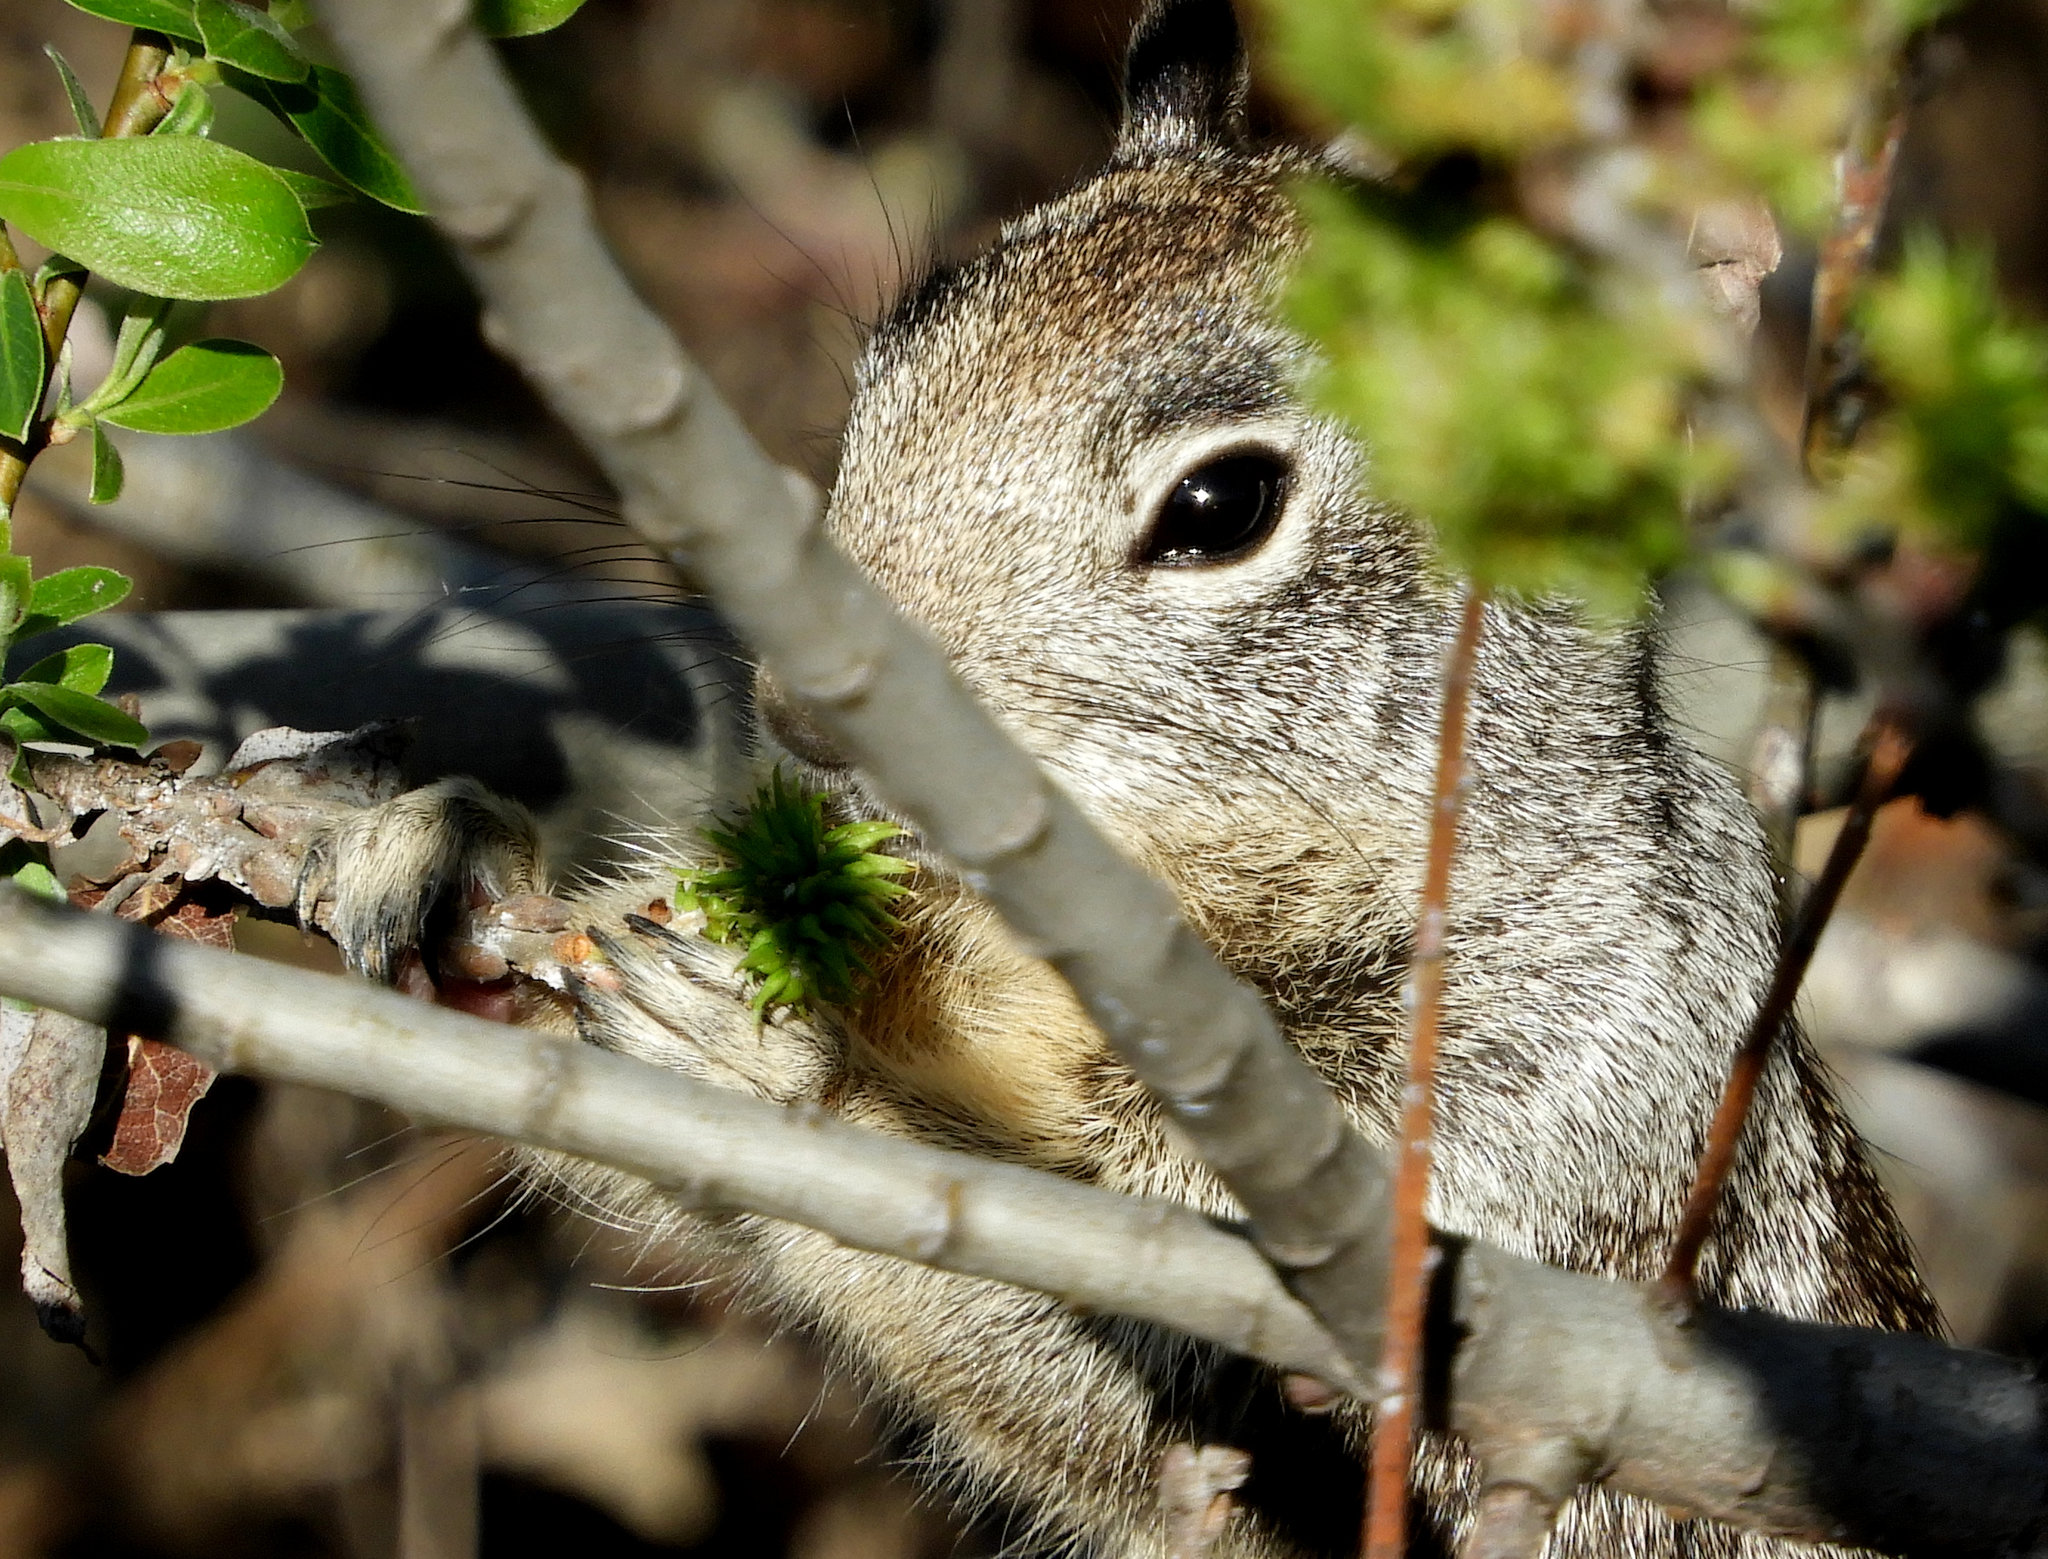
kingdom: Animalia
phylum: Chordata
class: Mammalia
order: Rodentia
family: Sciuridae
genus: Otospermophilus
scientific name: Otospermophilus beecheyi
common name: California ground squirrel
